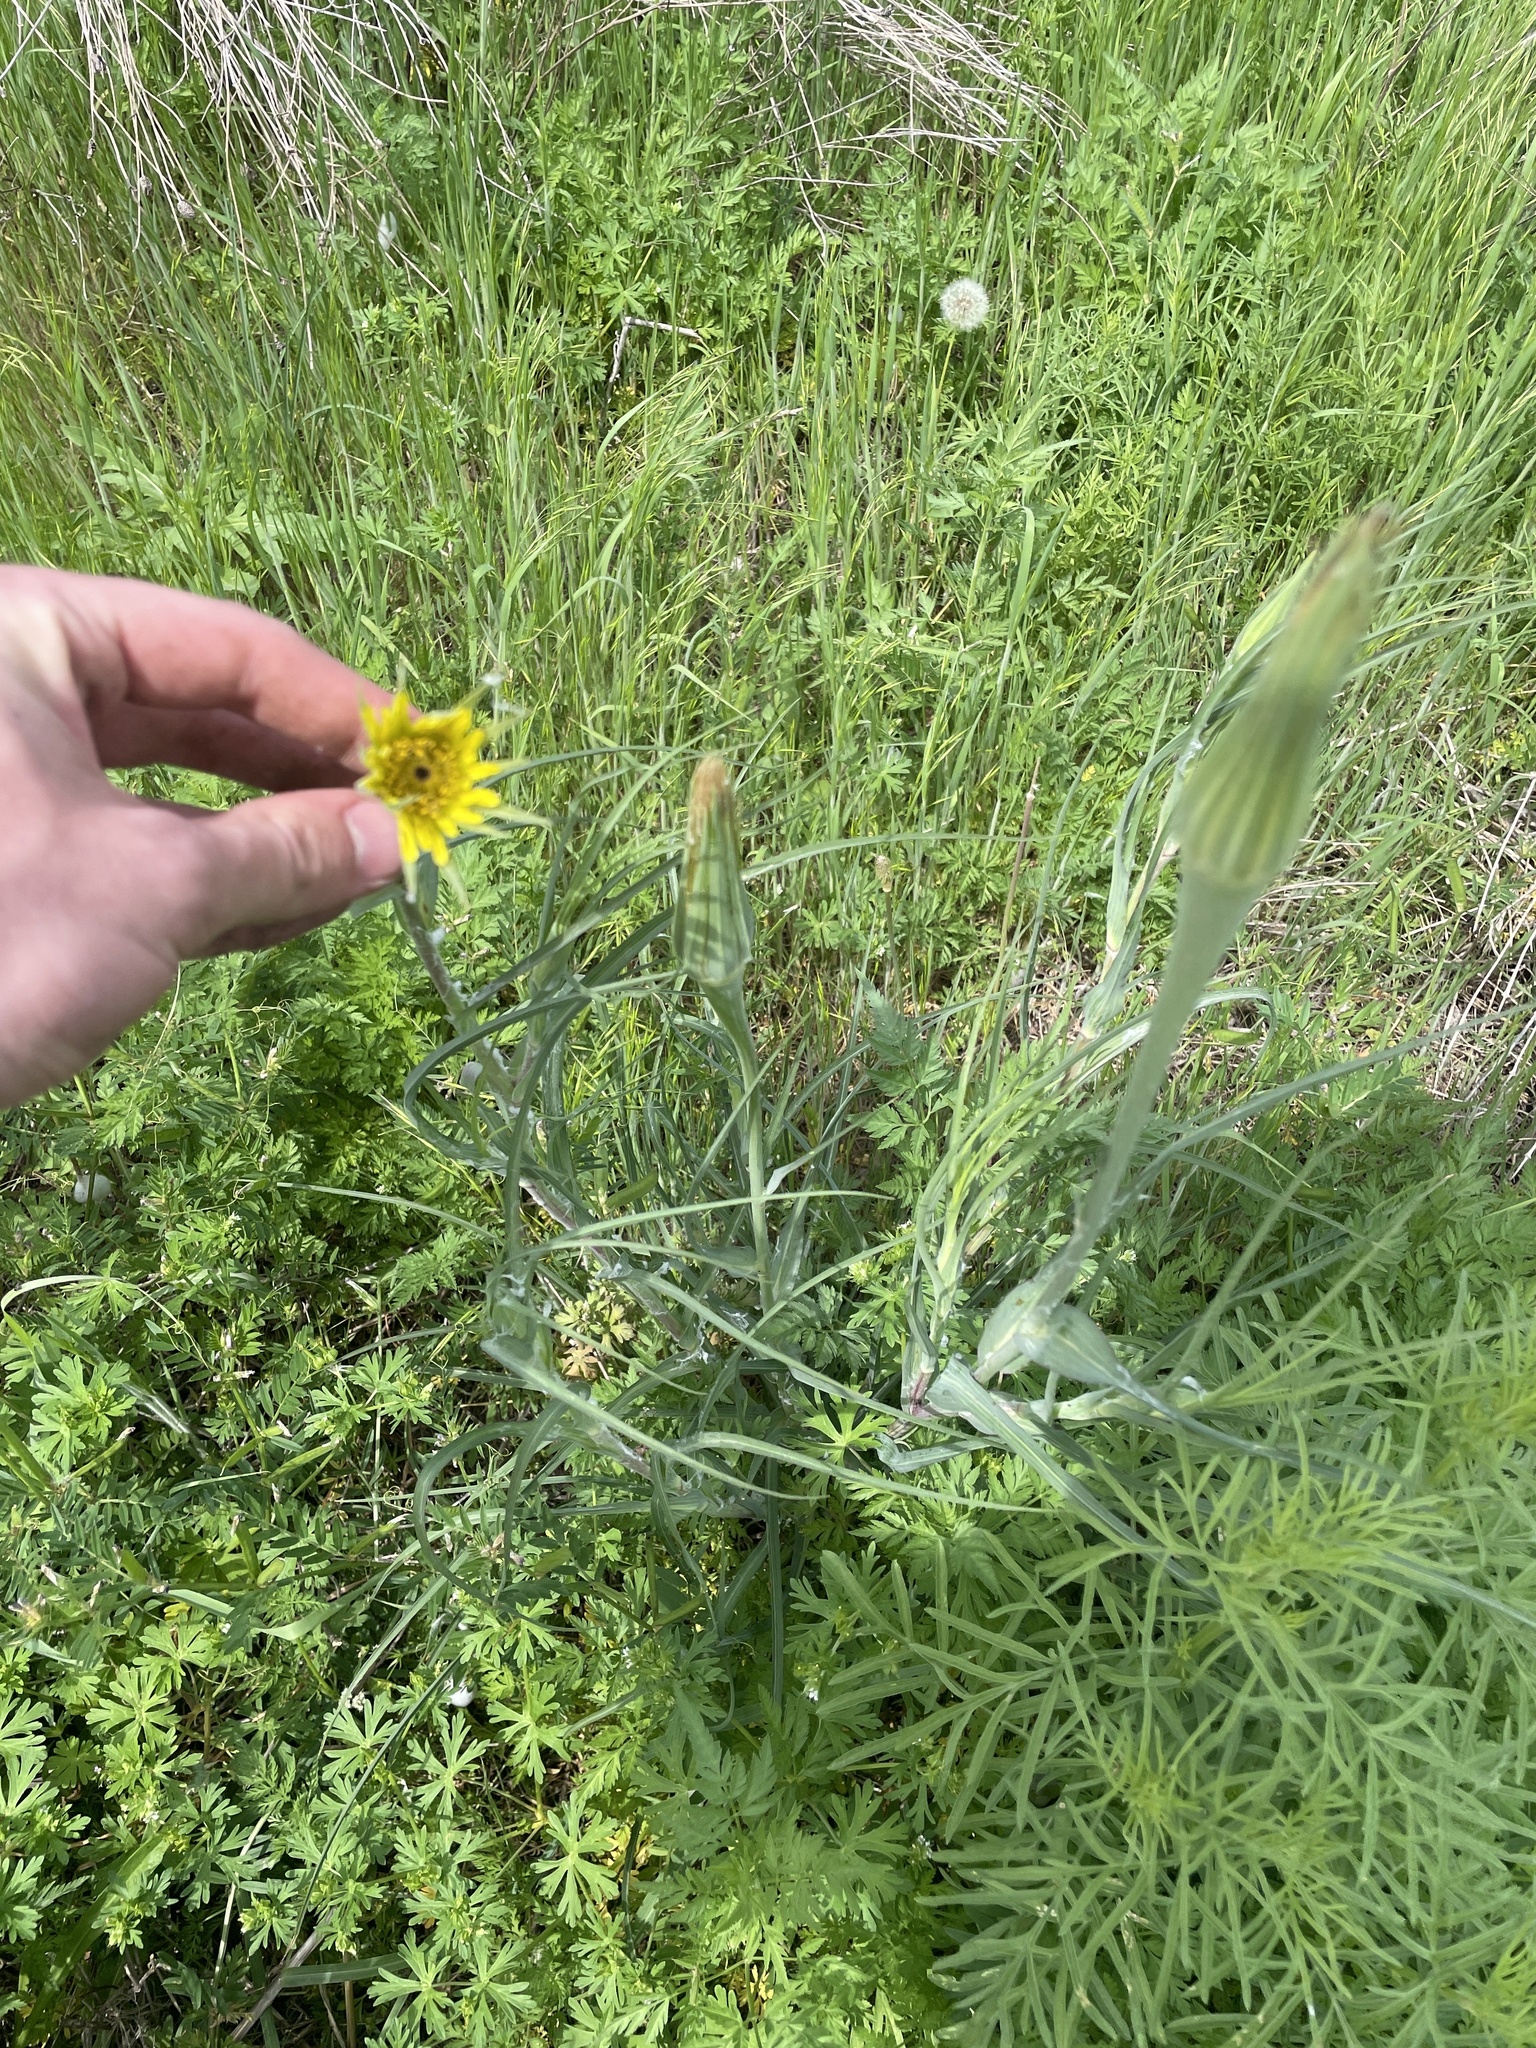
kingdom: Plantae
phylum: Tracheophyta
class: Magnoliopsida
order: Asterales
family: Asteraceae
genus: Tragopogon
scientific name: Tragopogon dubius
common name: Yellow salsify
